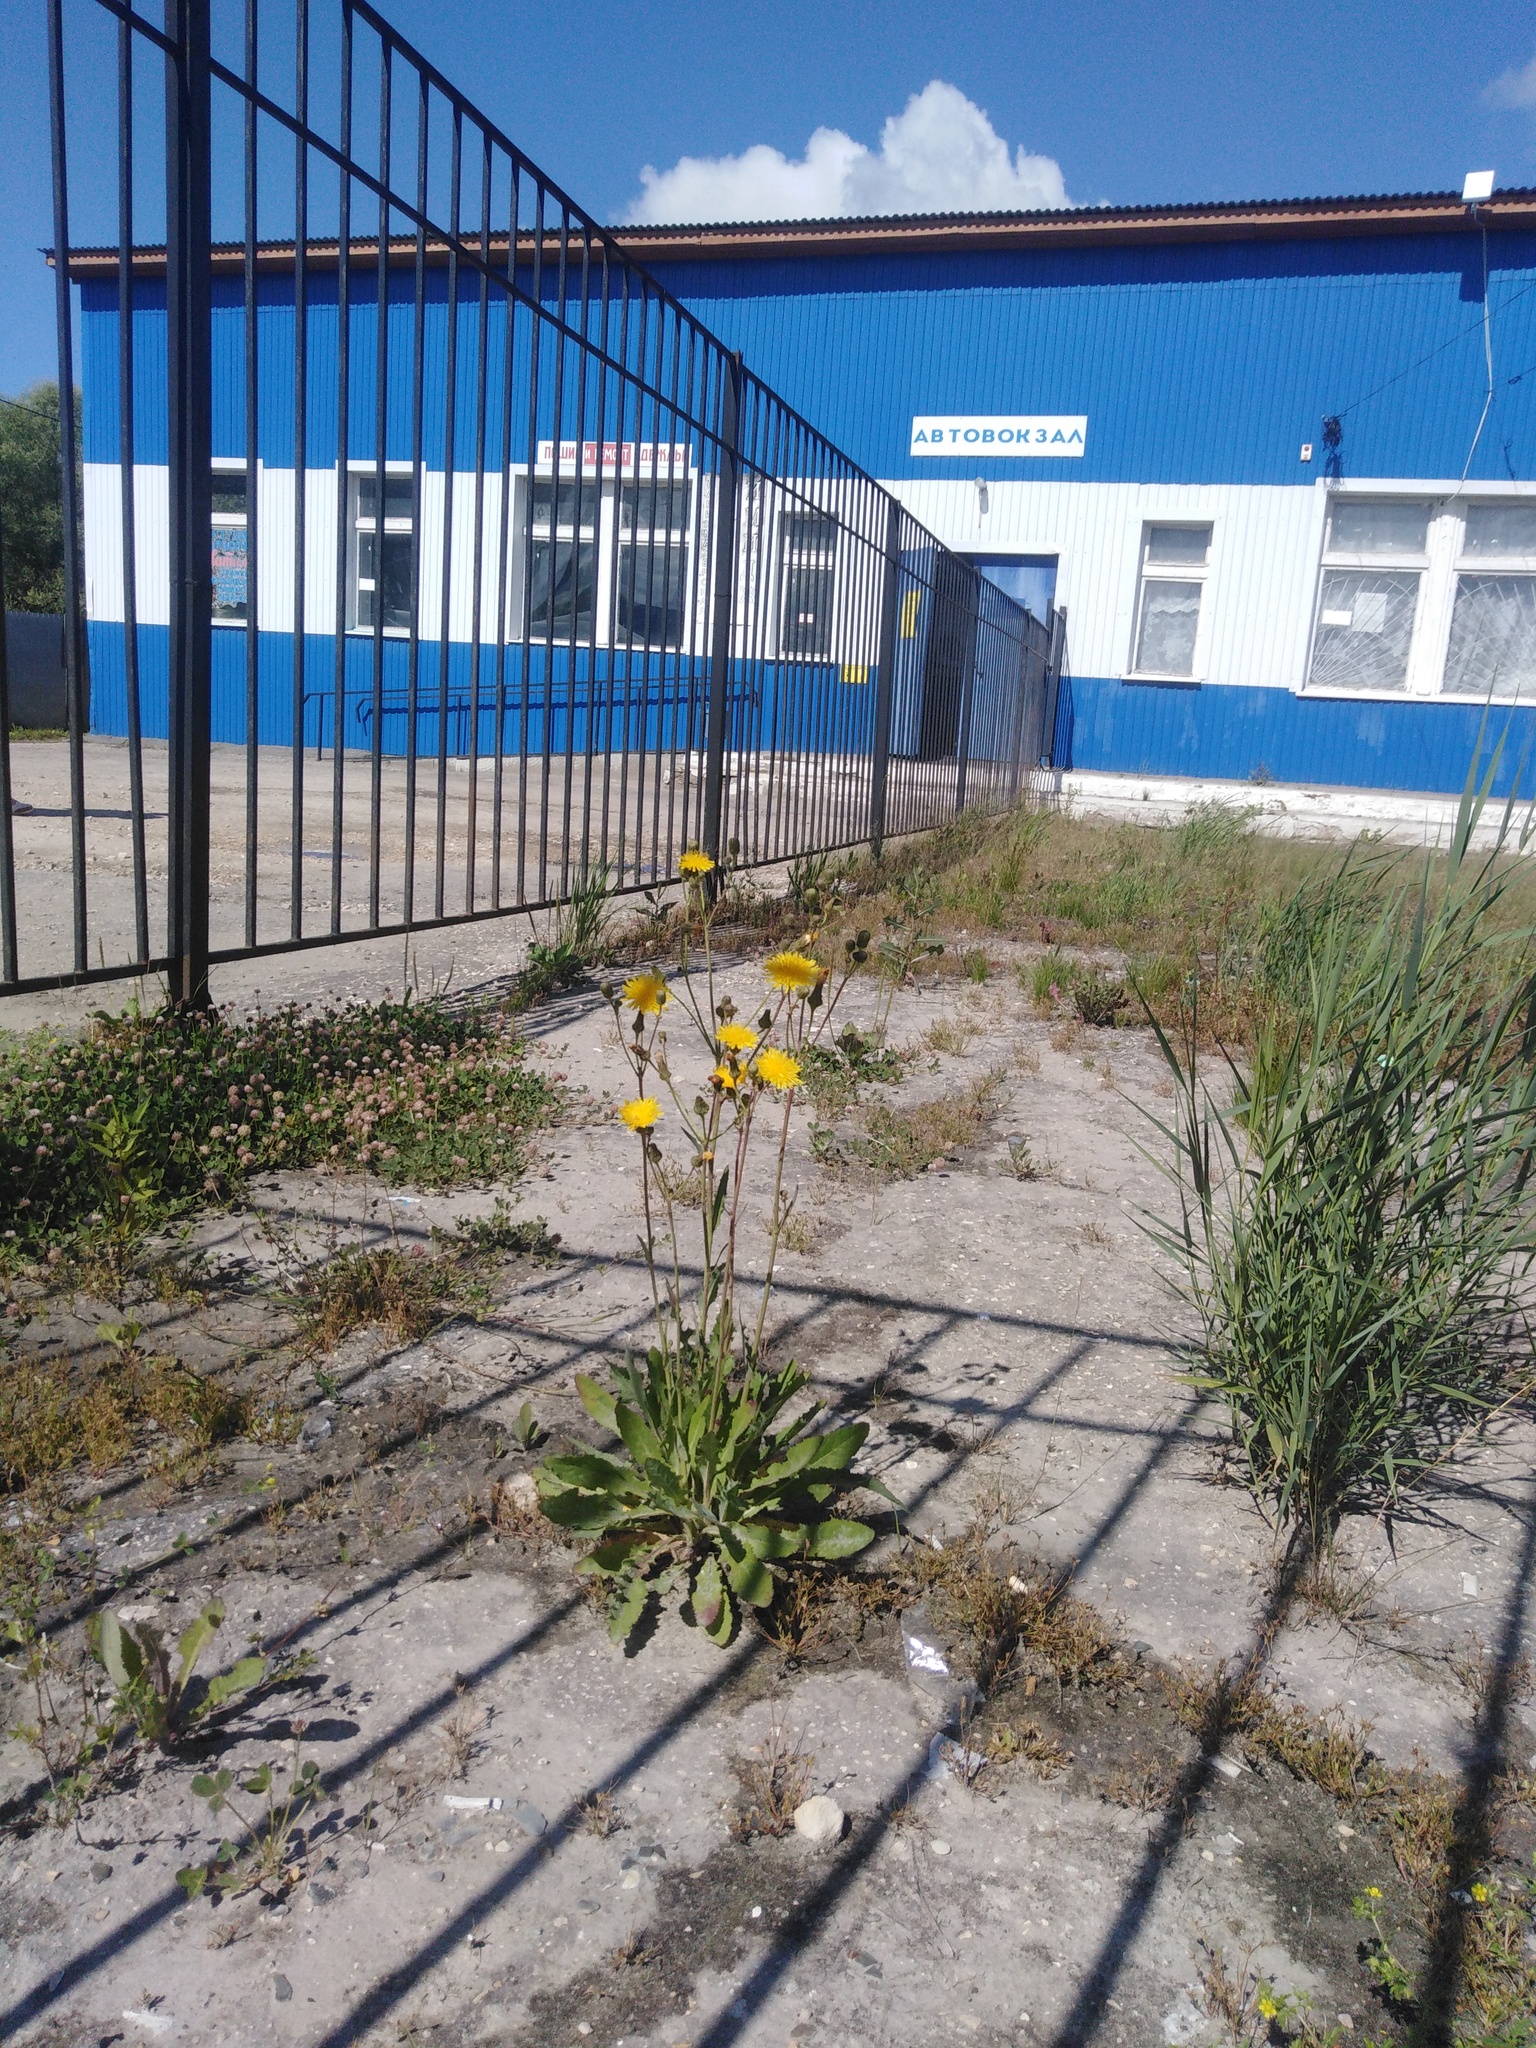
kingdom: Plantae
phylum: Tracheophyta
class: Magnoliopsida
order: Asterales
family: Asteraceae
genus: Sonchus
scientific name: Sonchus arvensis
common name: Perennial sow-thistle
